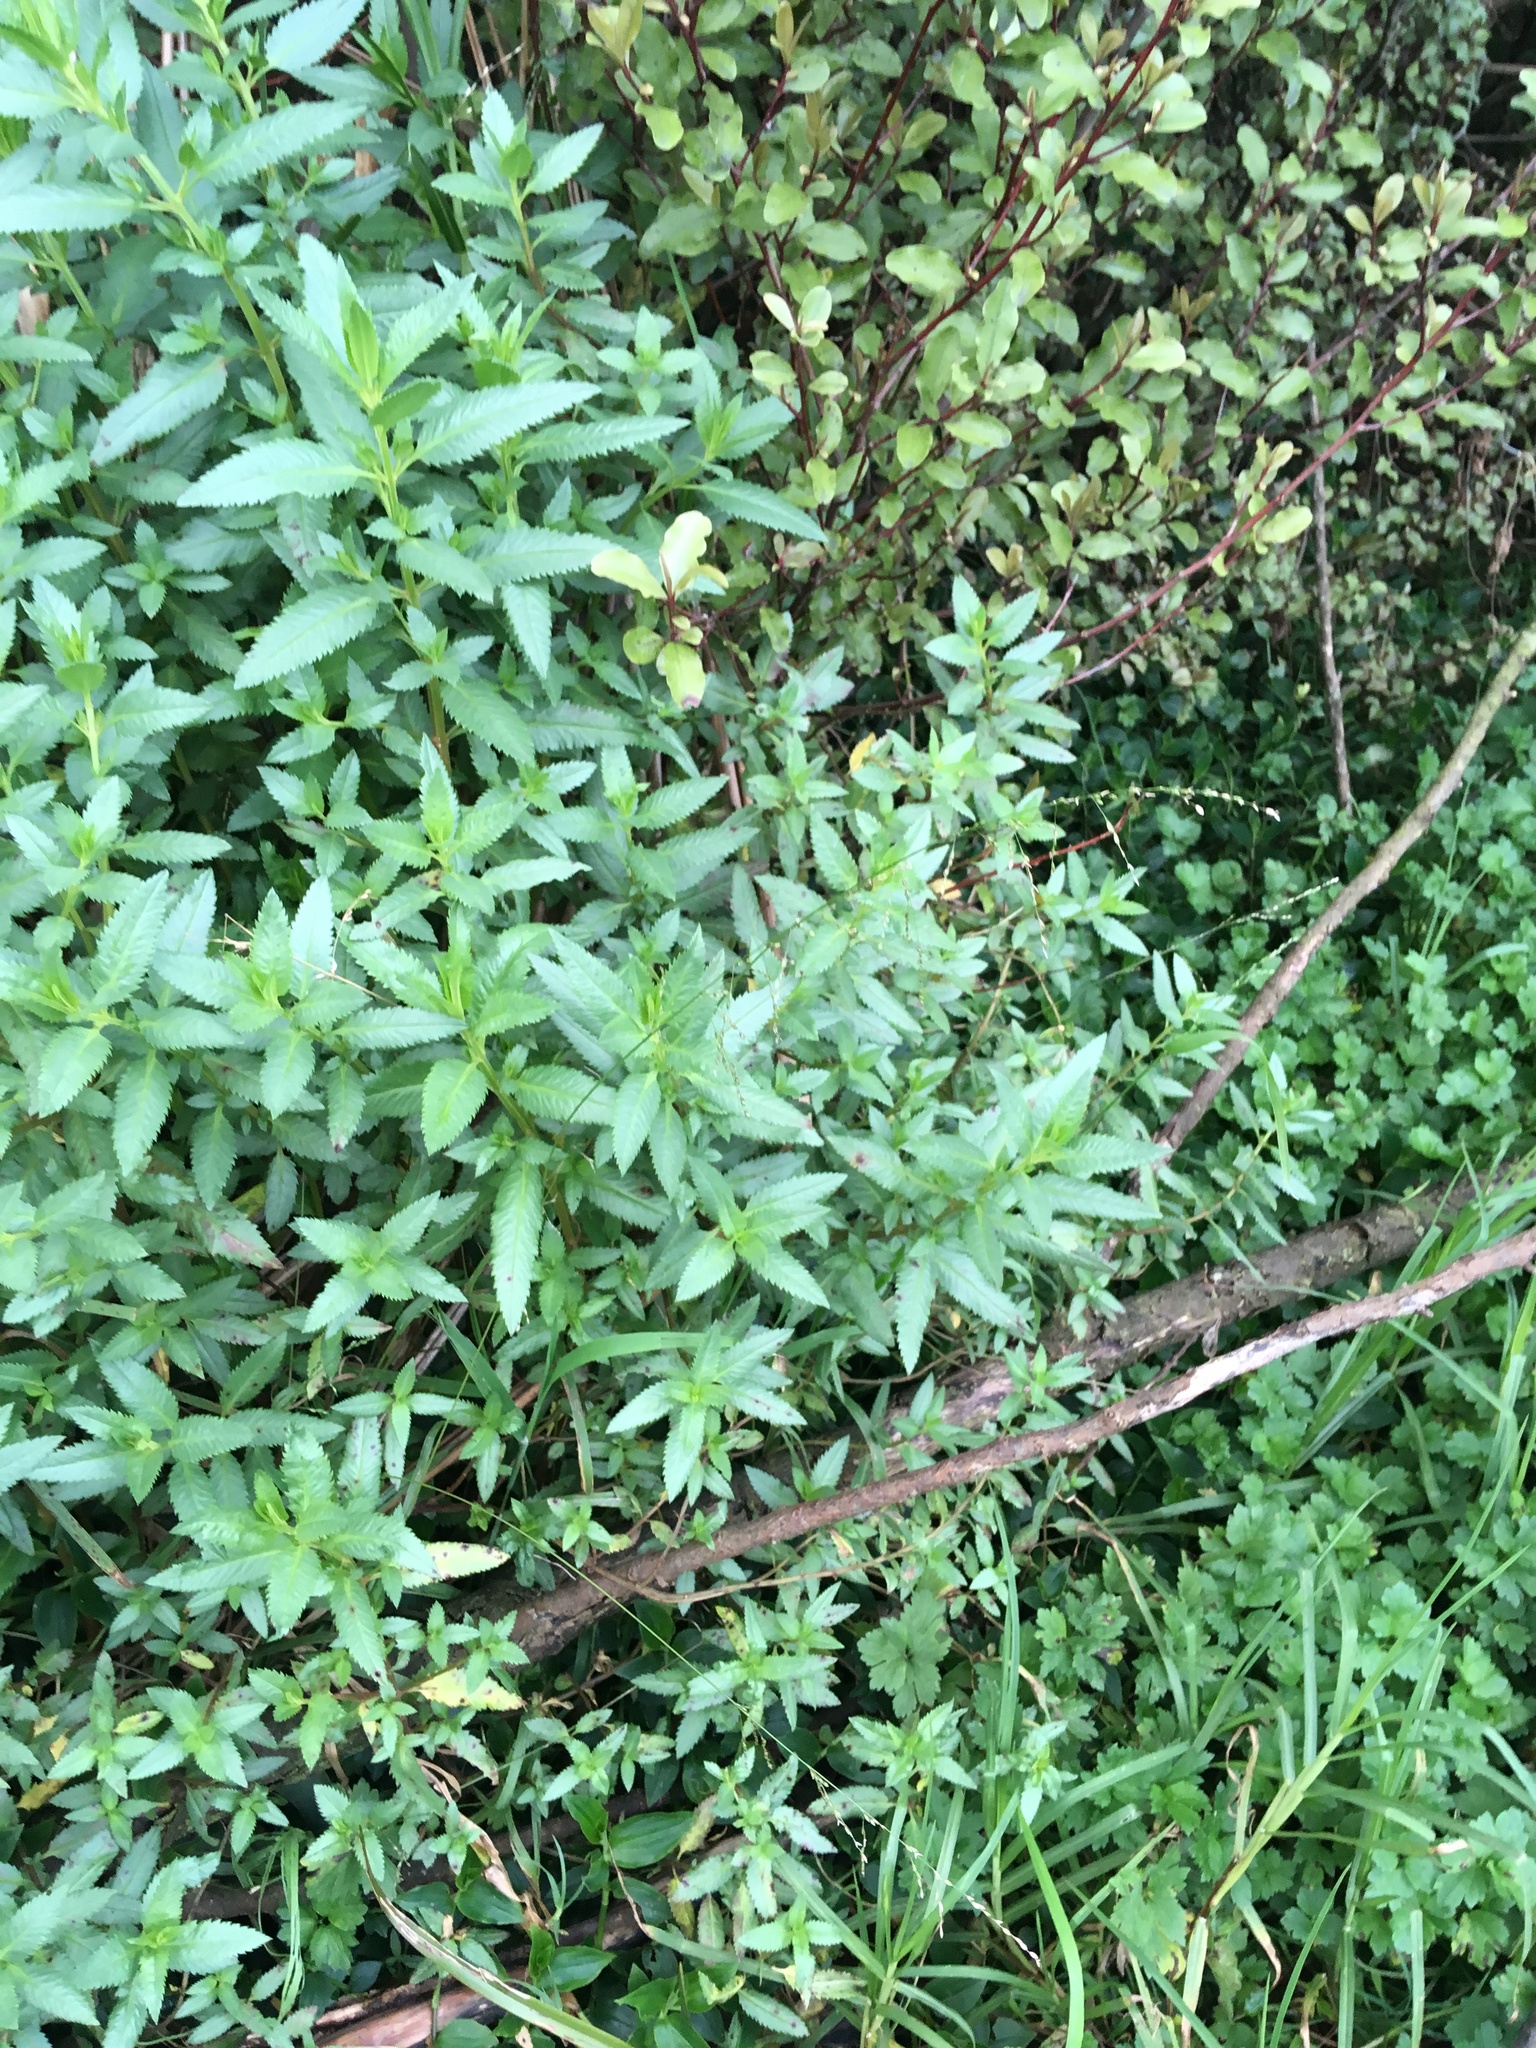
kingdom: Plantae
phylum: Tracheophyta
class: Magnoliopsida
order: Saxifragales
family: Haloragaceae
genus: Haloragis
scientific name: Haloragis erecta
